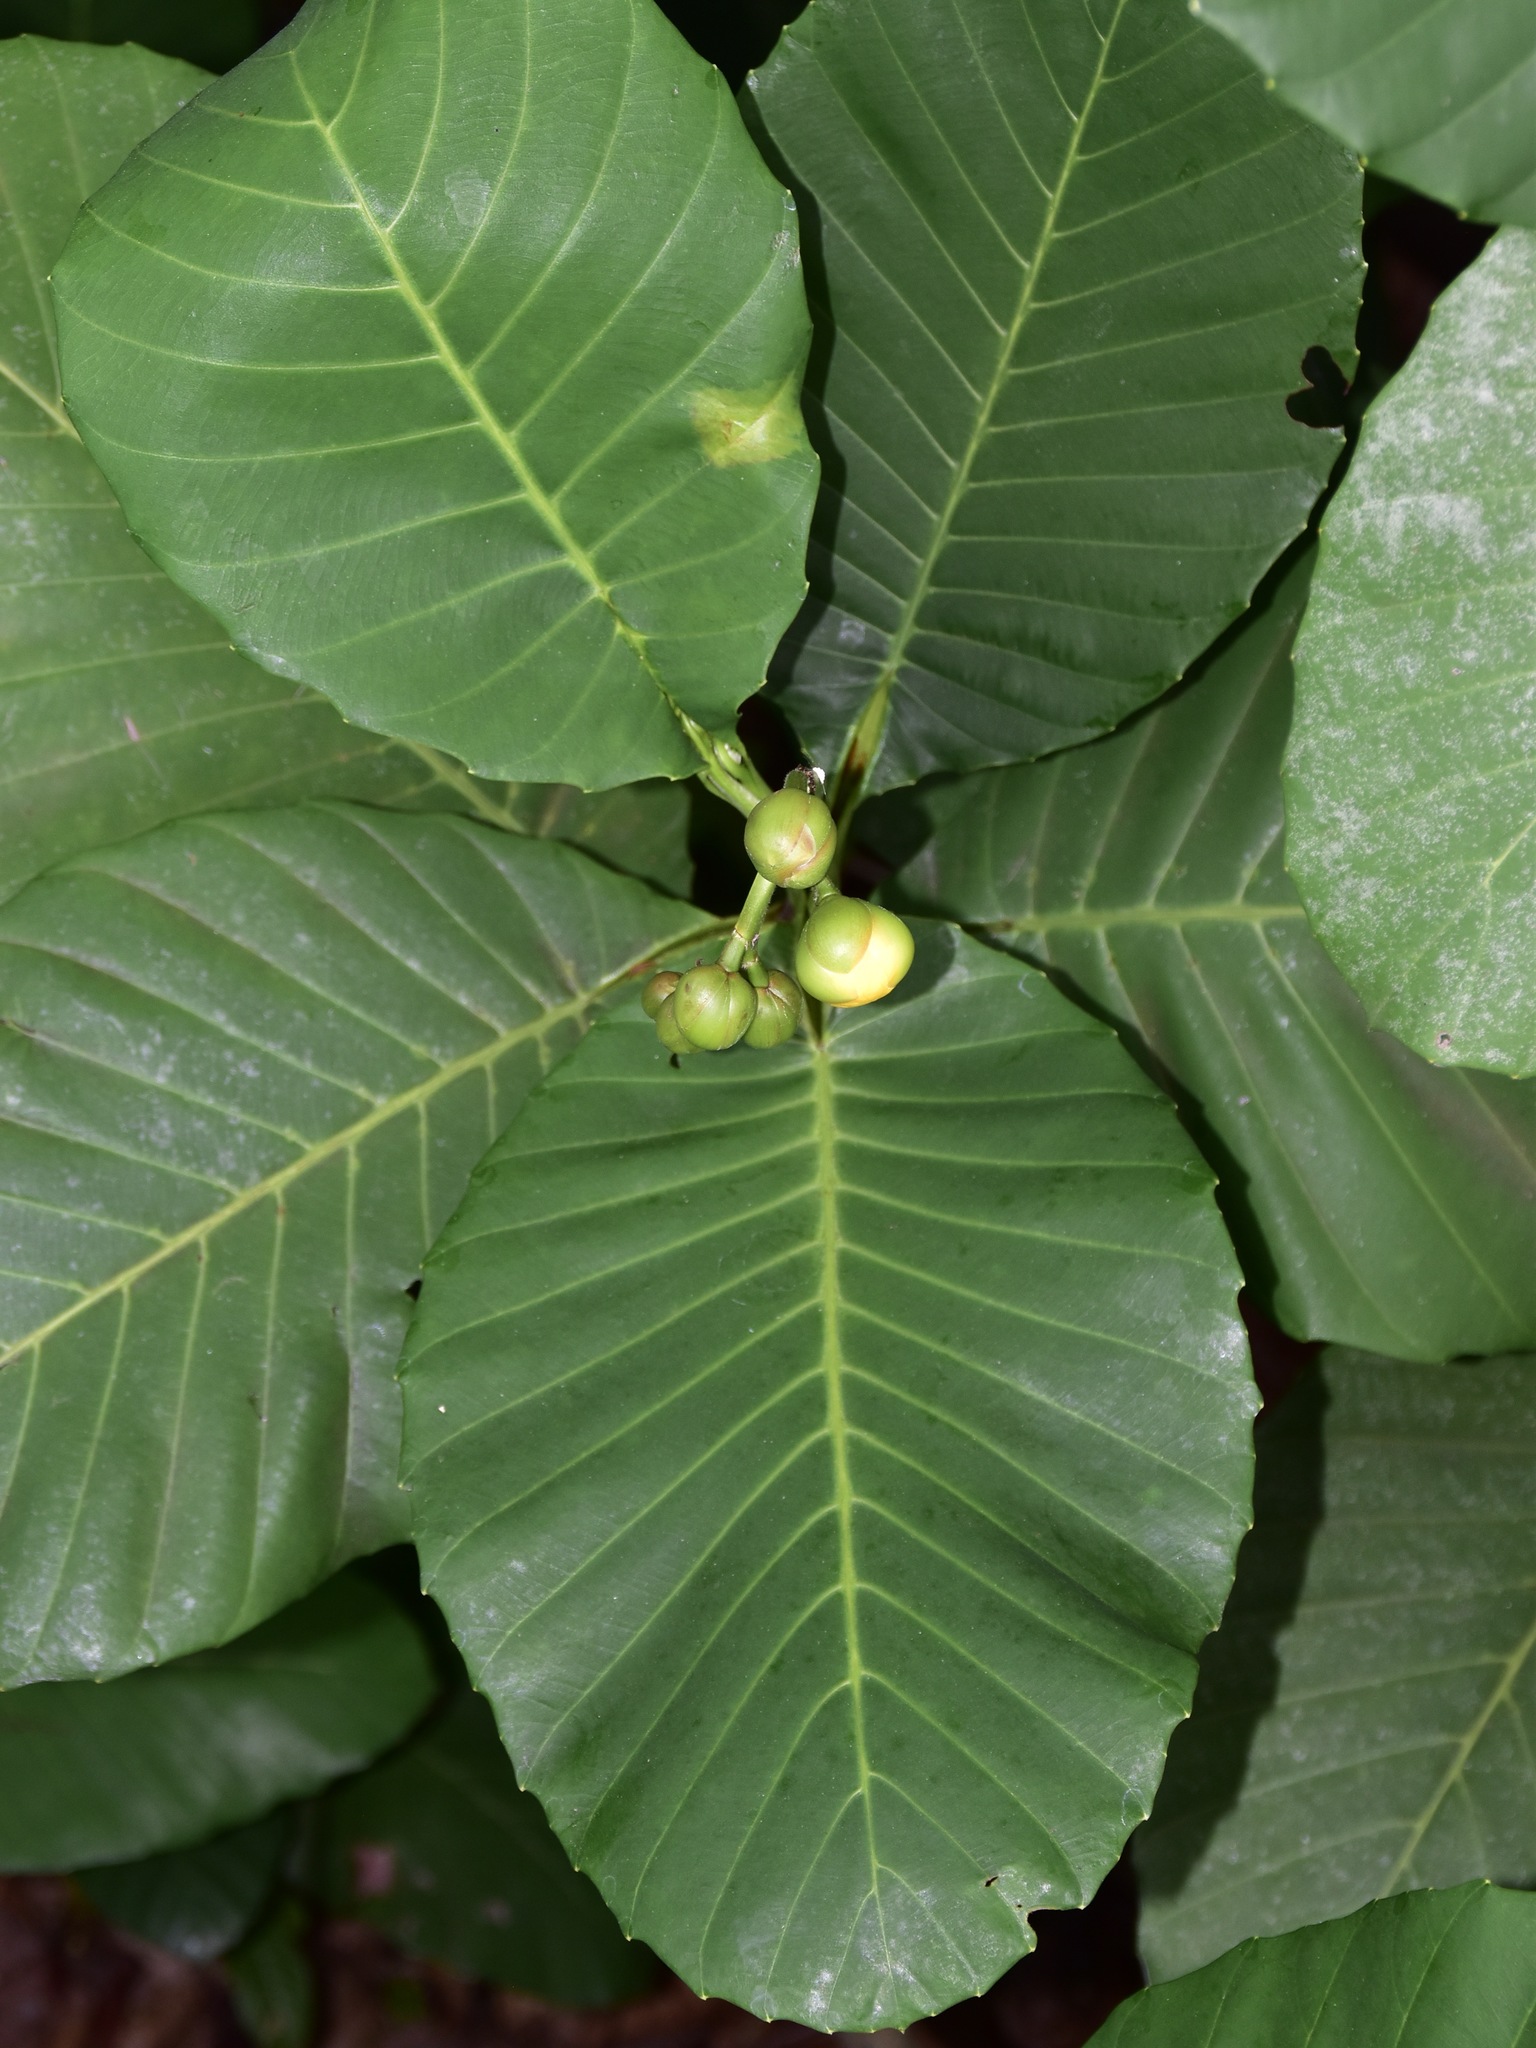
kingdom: Plantae
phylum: Tracheophyta
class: Magnoliopsida
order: Dilleniales
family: Dilleniaceae
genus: Dillenia
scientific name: Dillenia suffruticosa
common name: Shrubby dillenia
